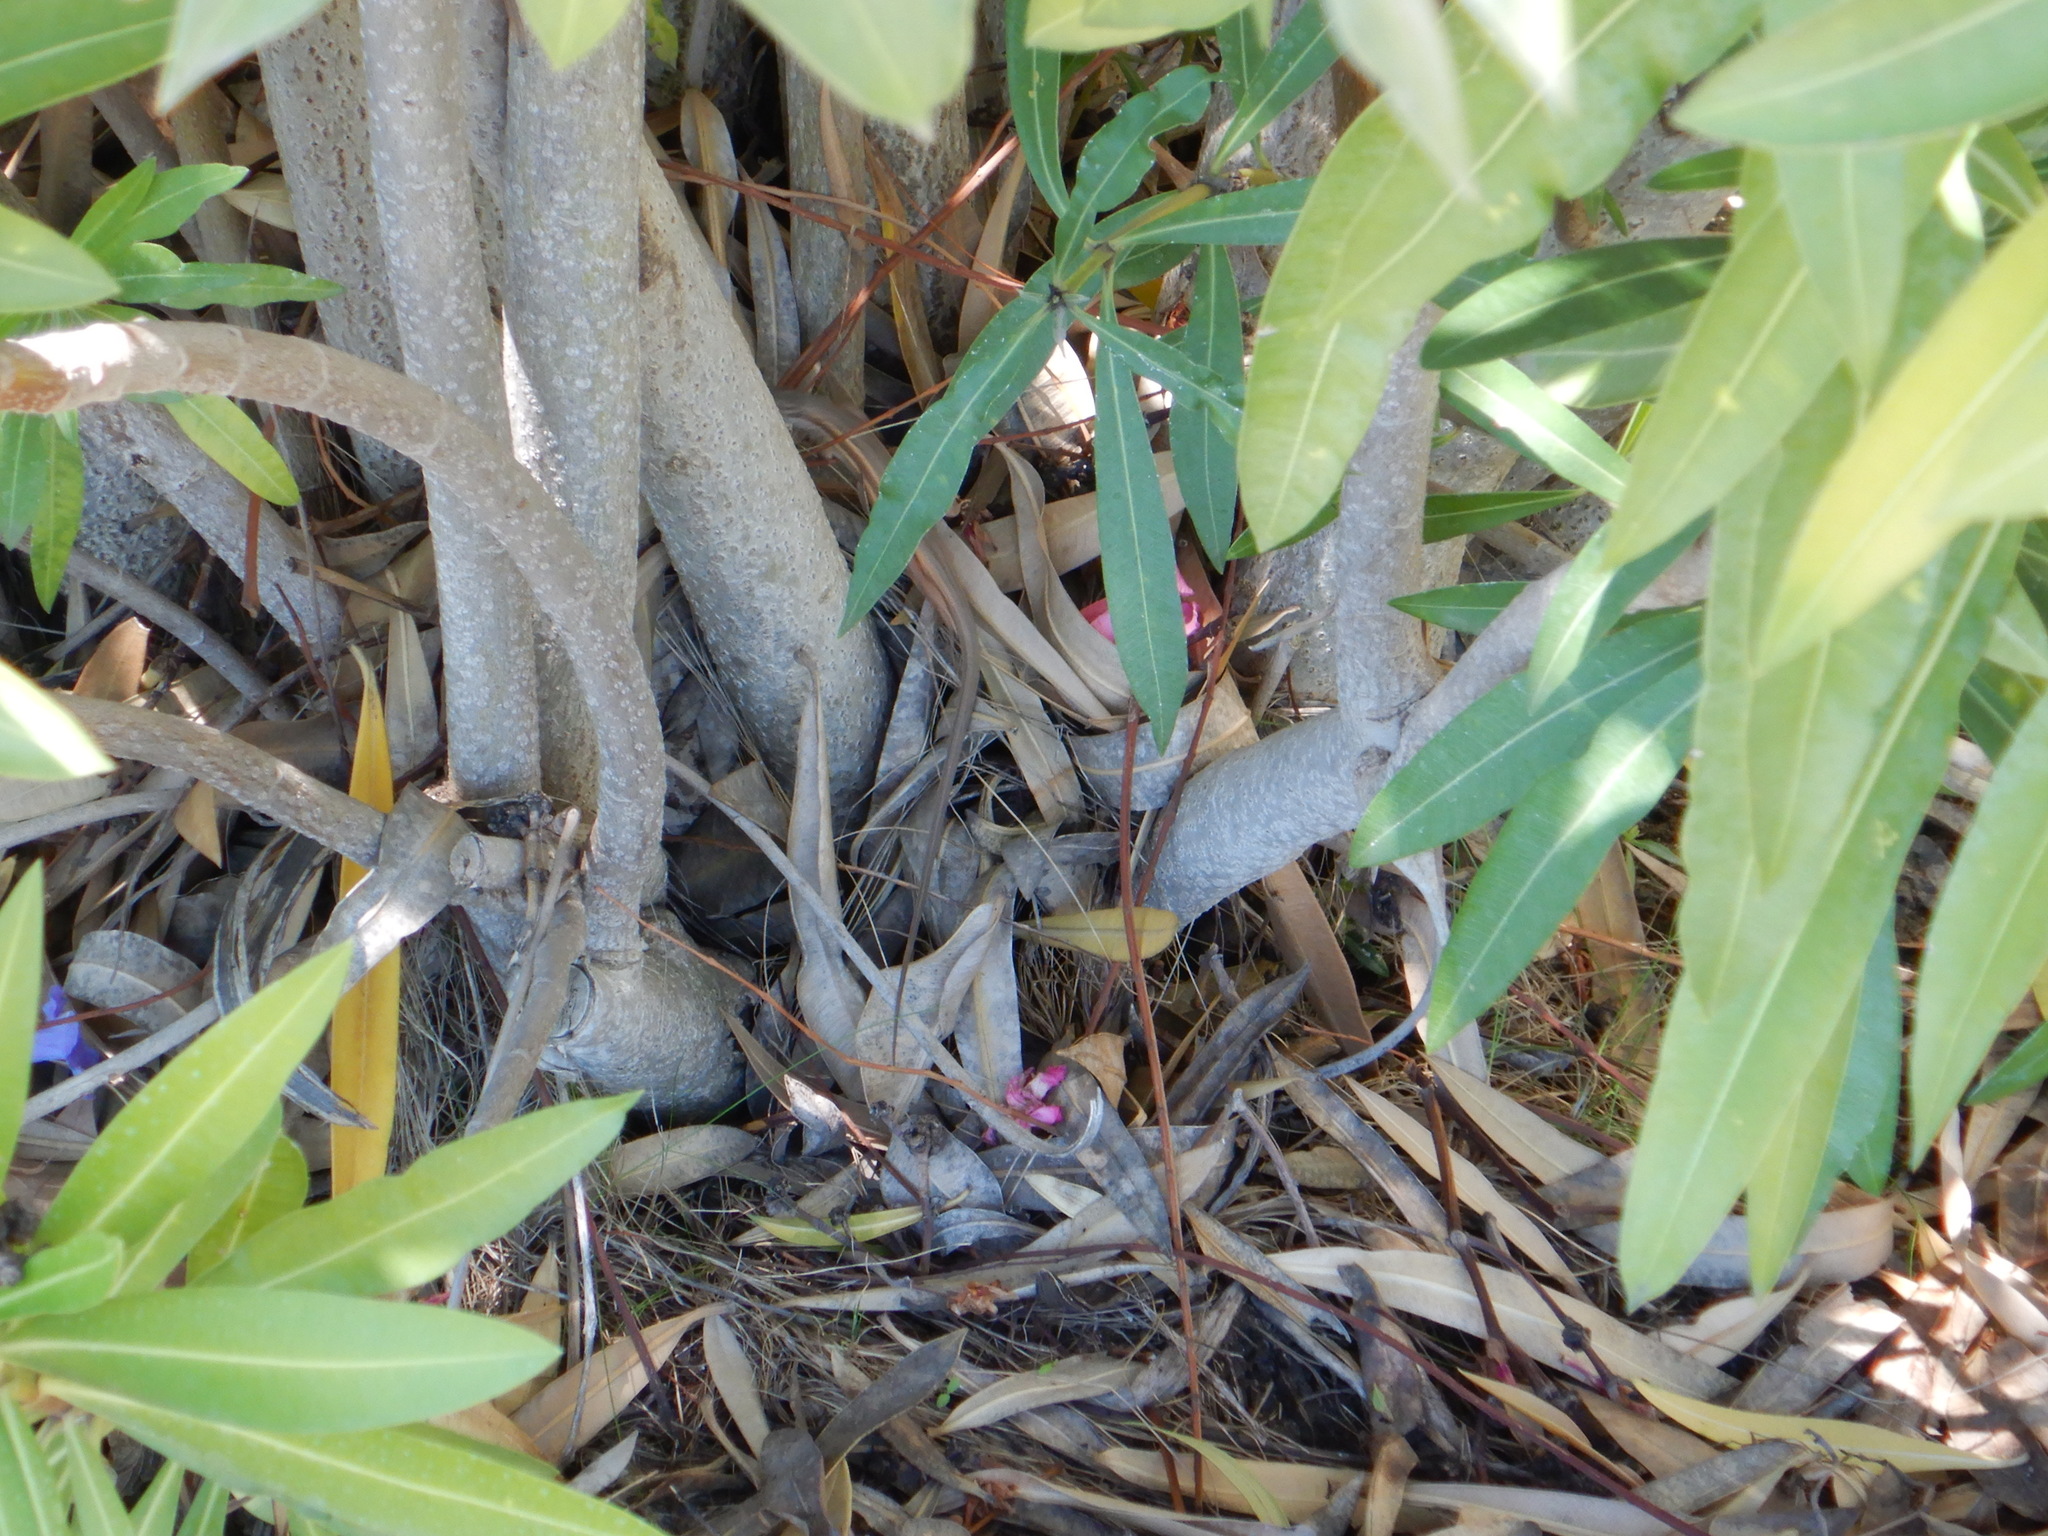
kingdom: Animalia
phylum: Chordata
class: Squamata
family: Lacertidae
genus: Psammodromus
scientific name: Psammodromus algirus
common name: Algerian psammodromus
